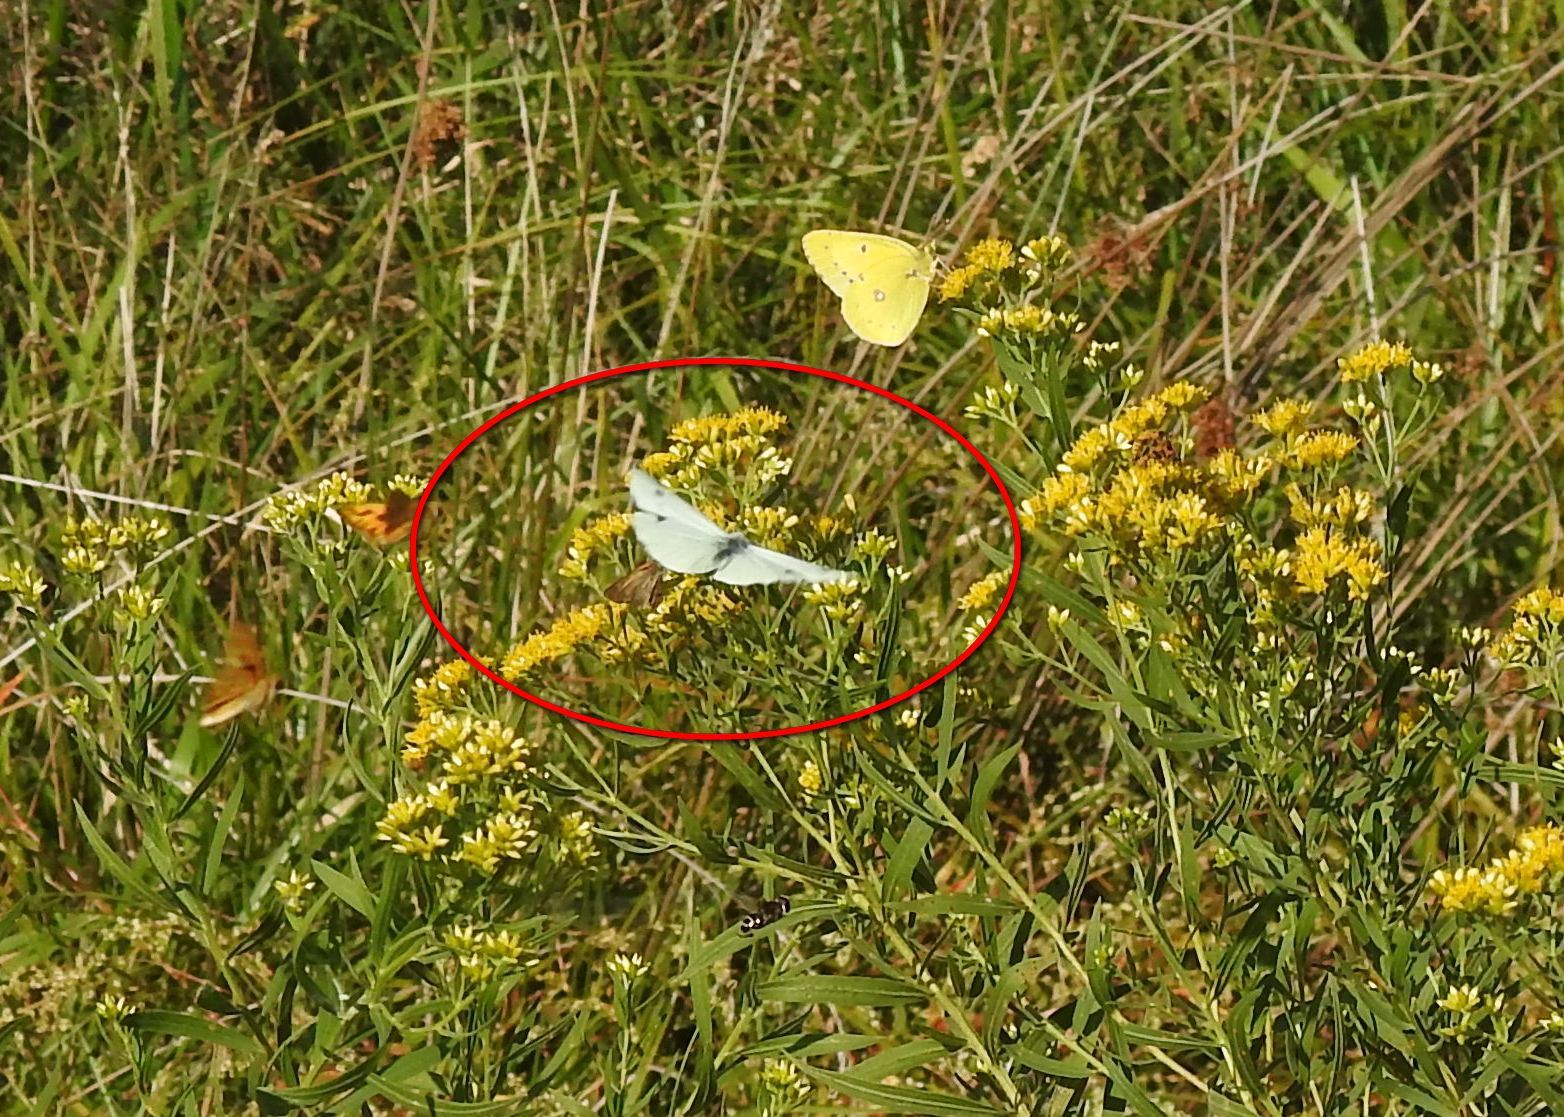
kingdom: Animalia
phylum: Arthropoda
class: Insecta
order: Lepidoptera
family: Pieridae
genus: Pieris
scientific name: Pieris rapae
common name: Small white
